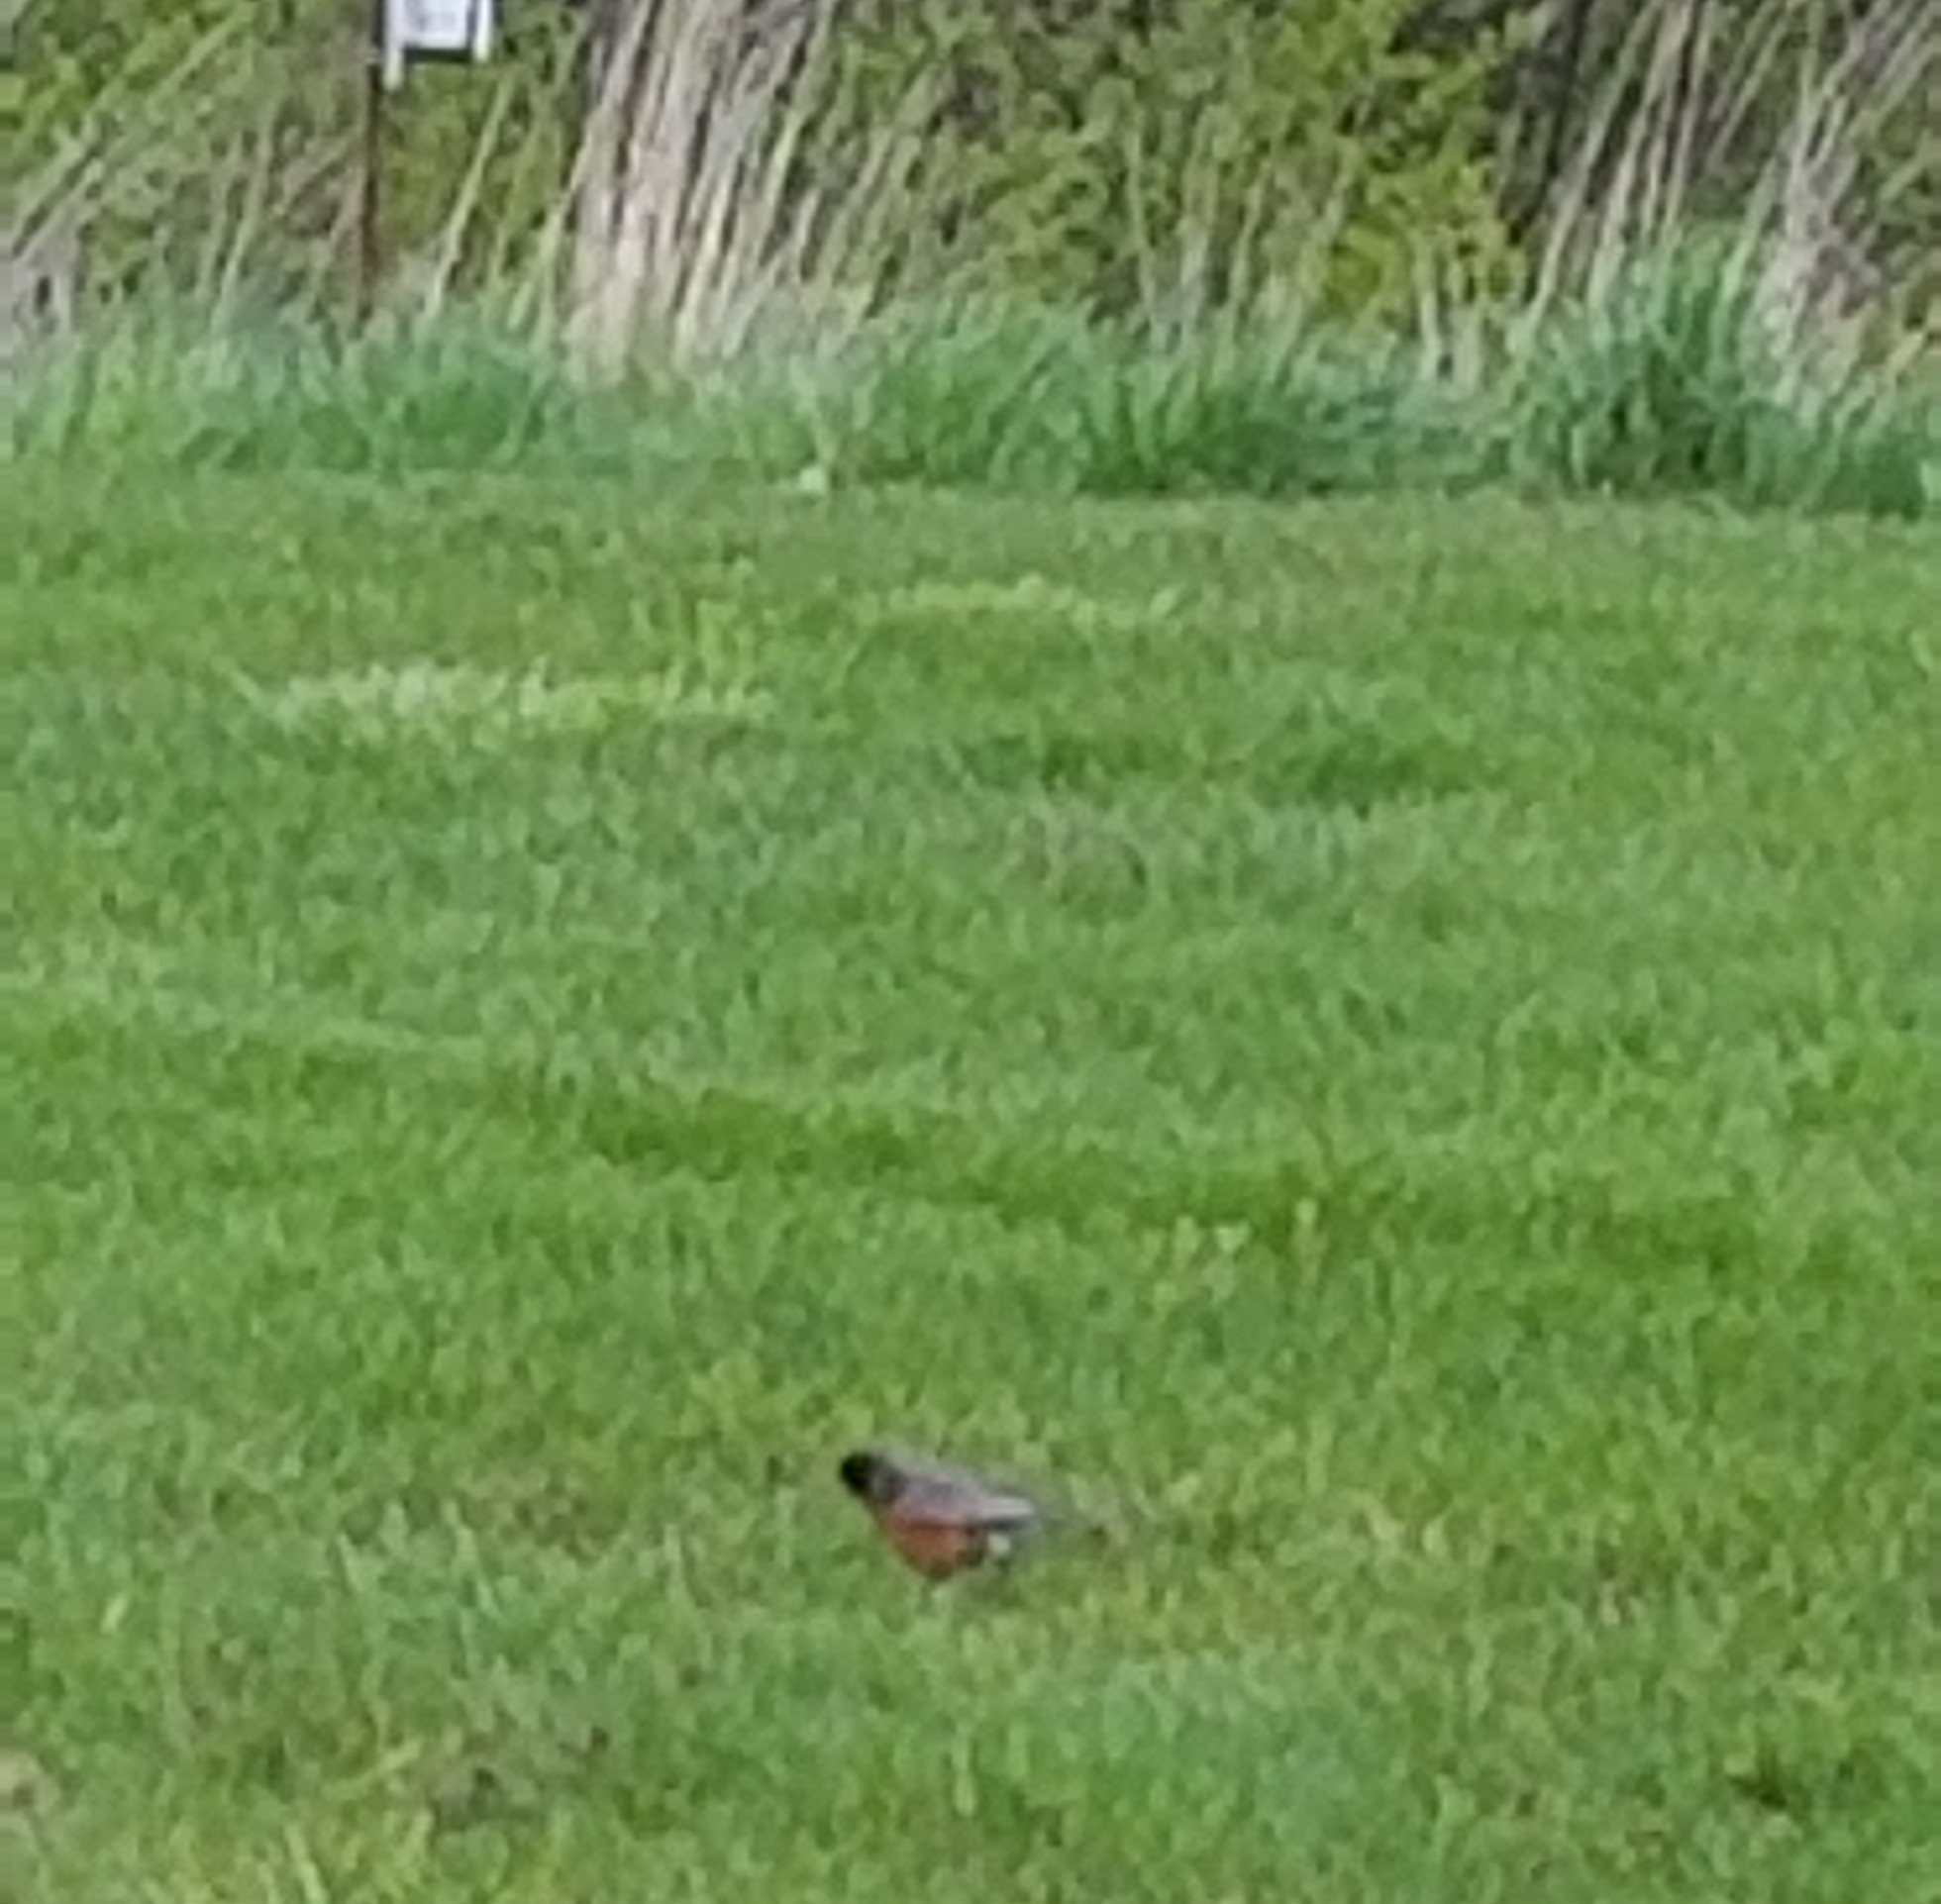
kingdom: Animalia
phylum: Chordata
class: Aves
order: Passeriformes
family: Turdidae
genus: Turdus
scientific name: Turdus migratorius
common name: American robin
